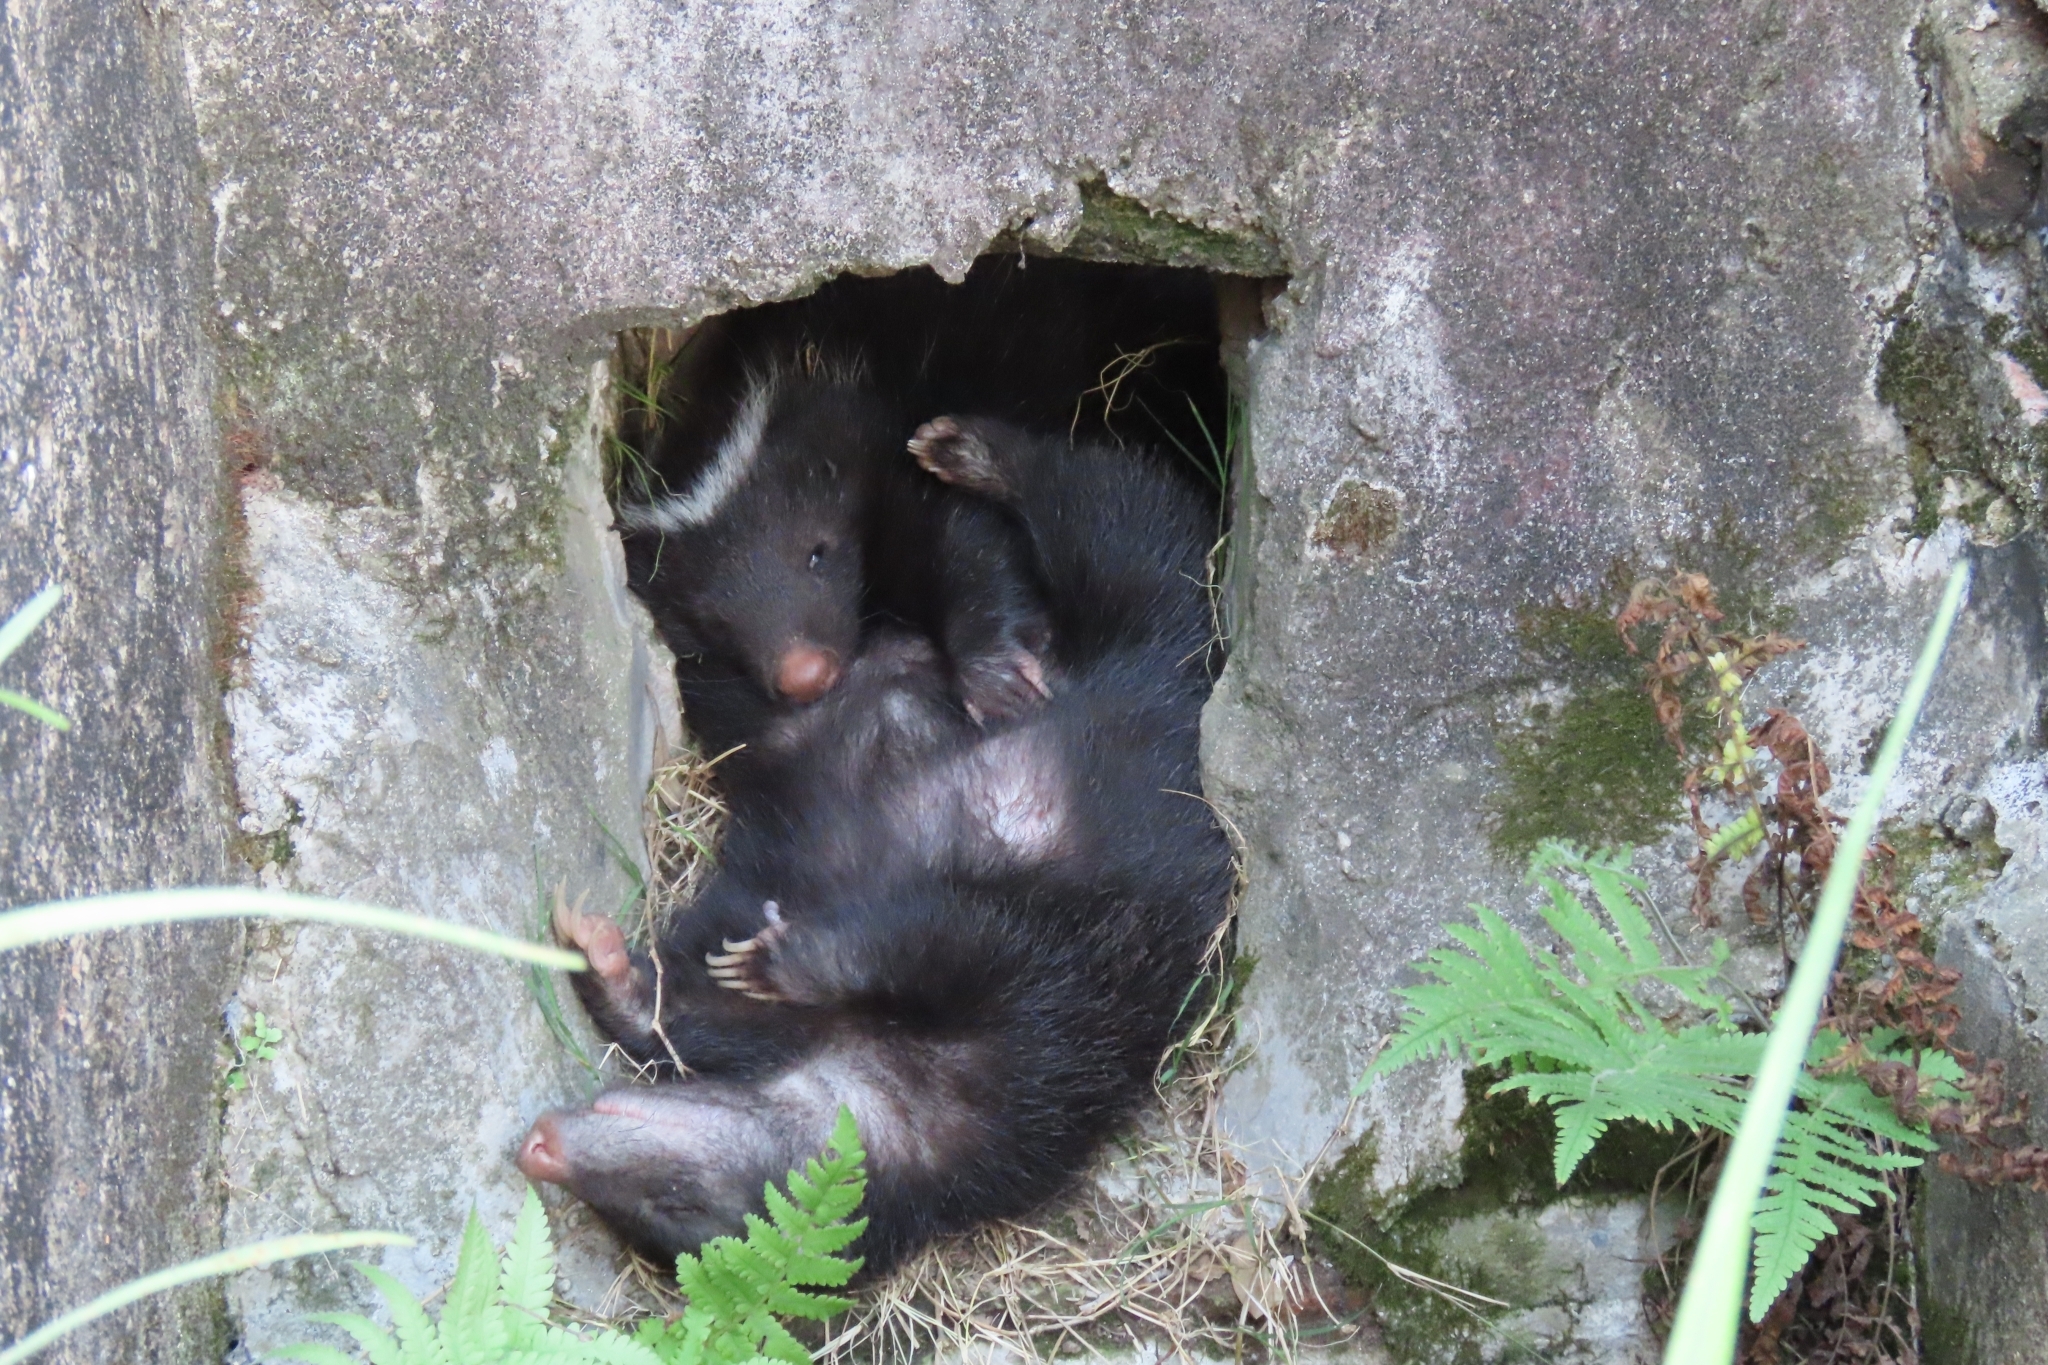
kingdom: Animalia
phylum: Chordata
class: Mammalia
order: Carnivora
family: Mephitidae
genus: Conepatus
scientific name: Conepatus chinga
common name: Molina's hog-nosed skunk
